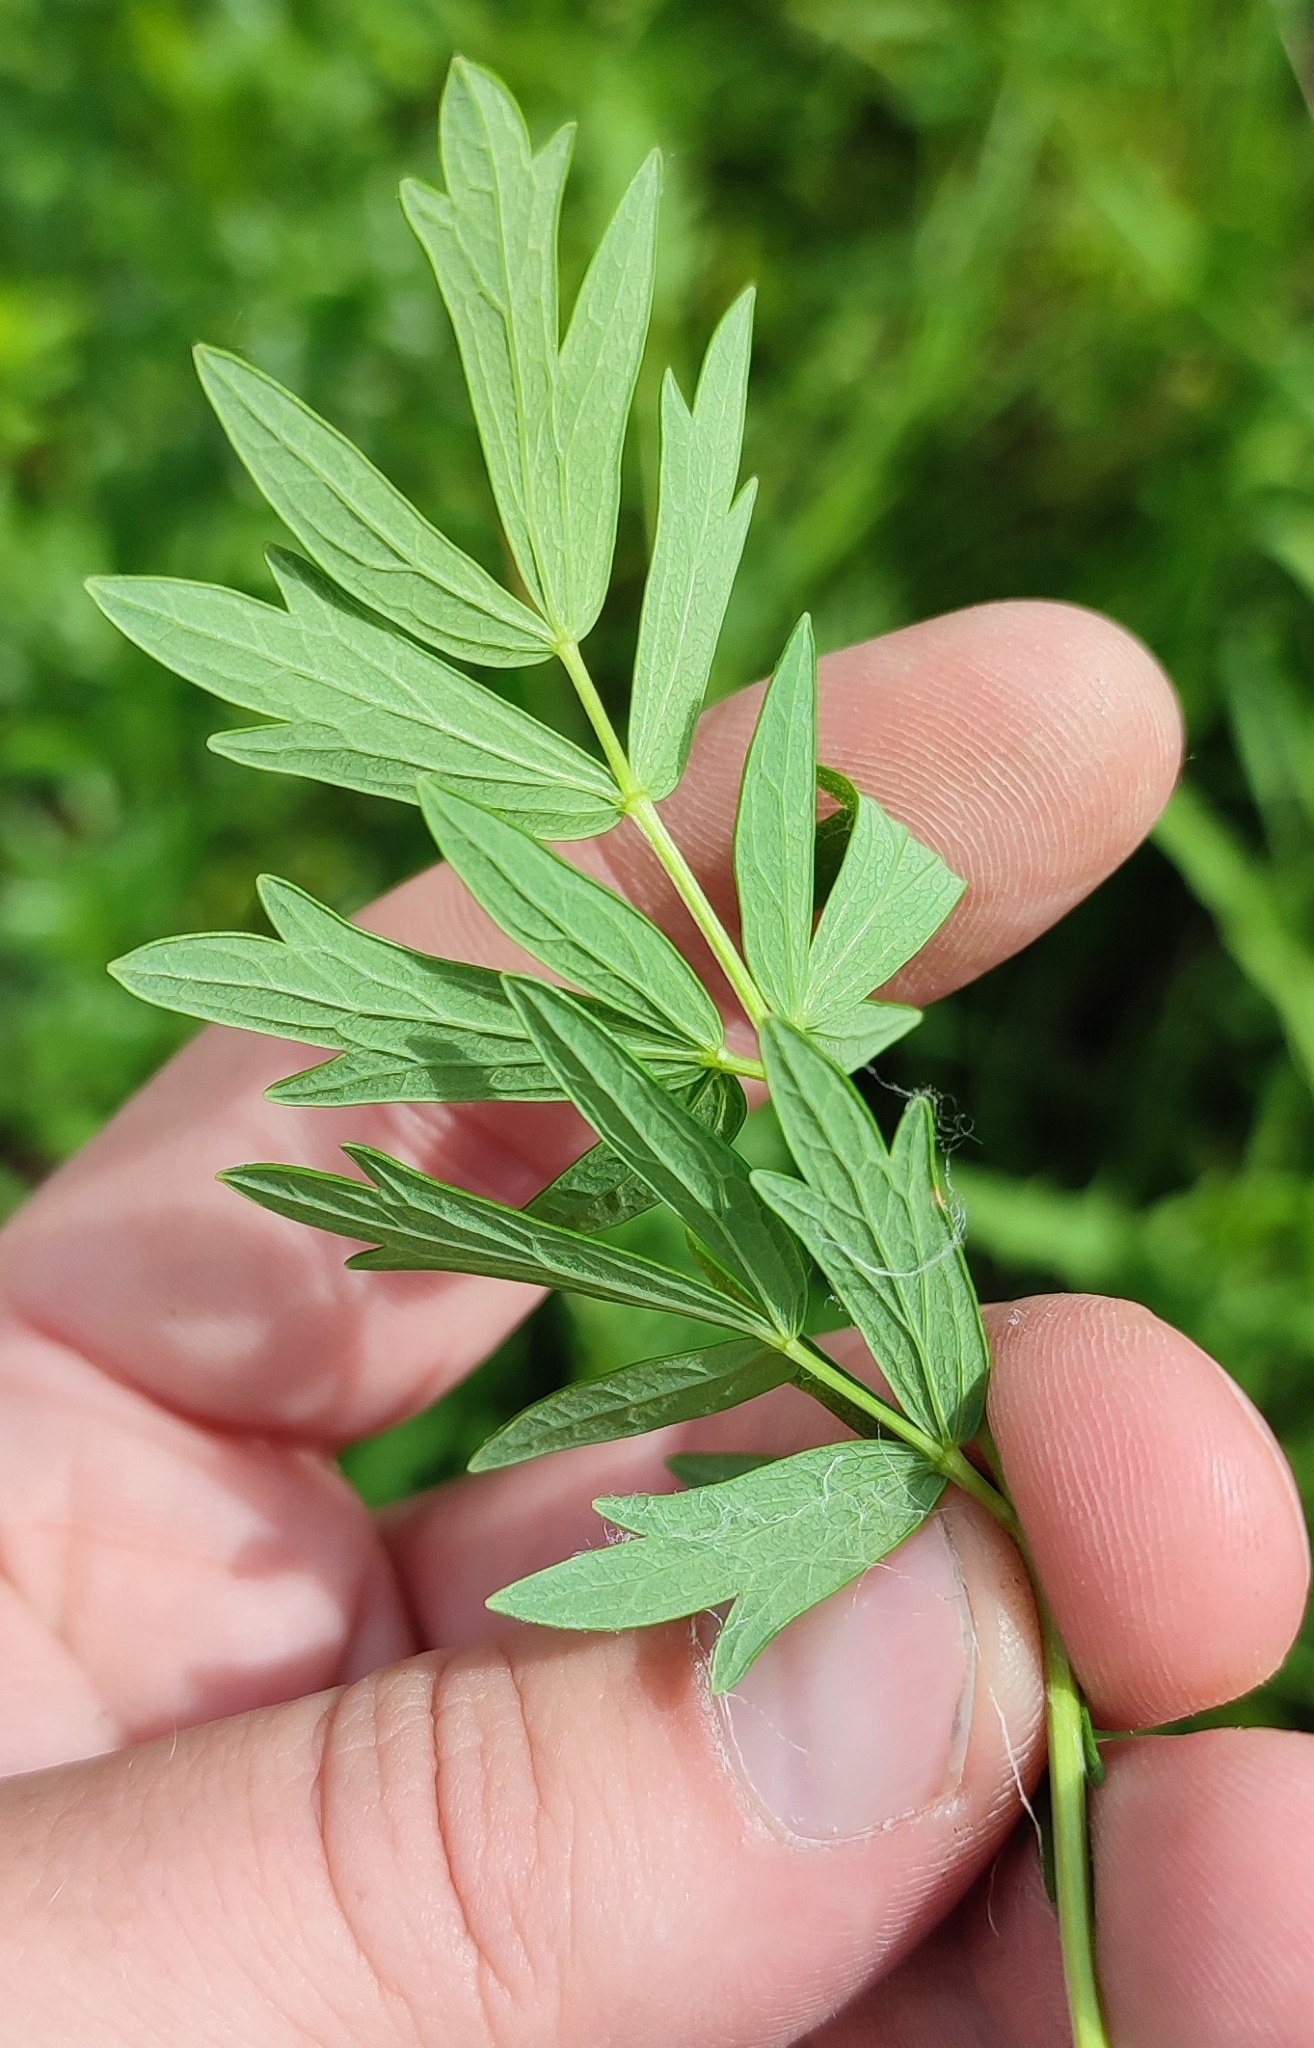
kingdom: Plantae
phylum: Tracheophyta
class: Magnoliopsida
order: Ranunculales
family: Ranunculaceae
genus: Thalictrum
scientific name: Thalictrum flavum
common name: Common meadow-rue
